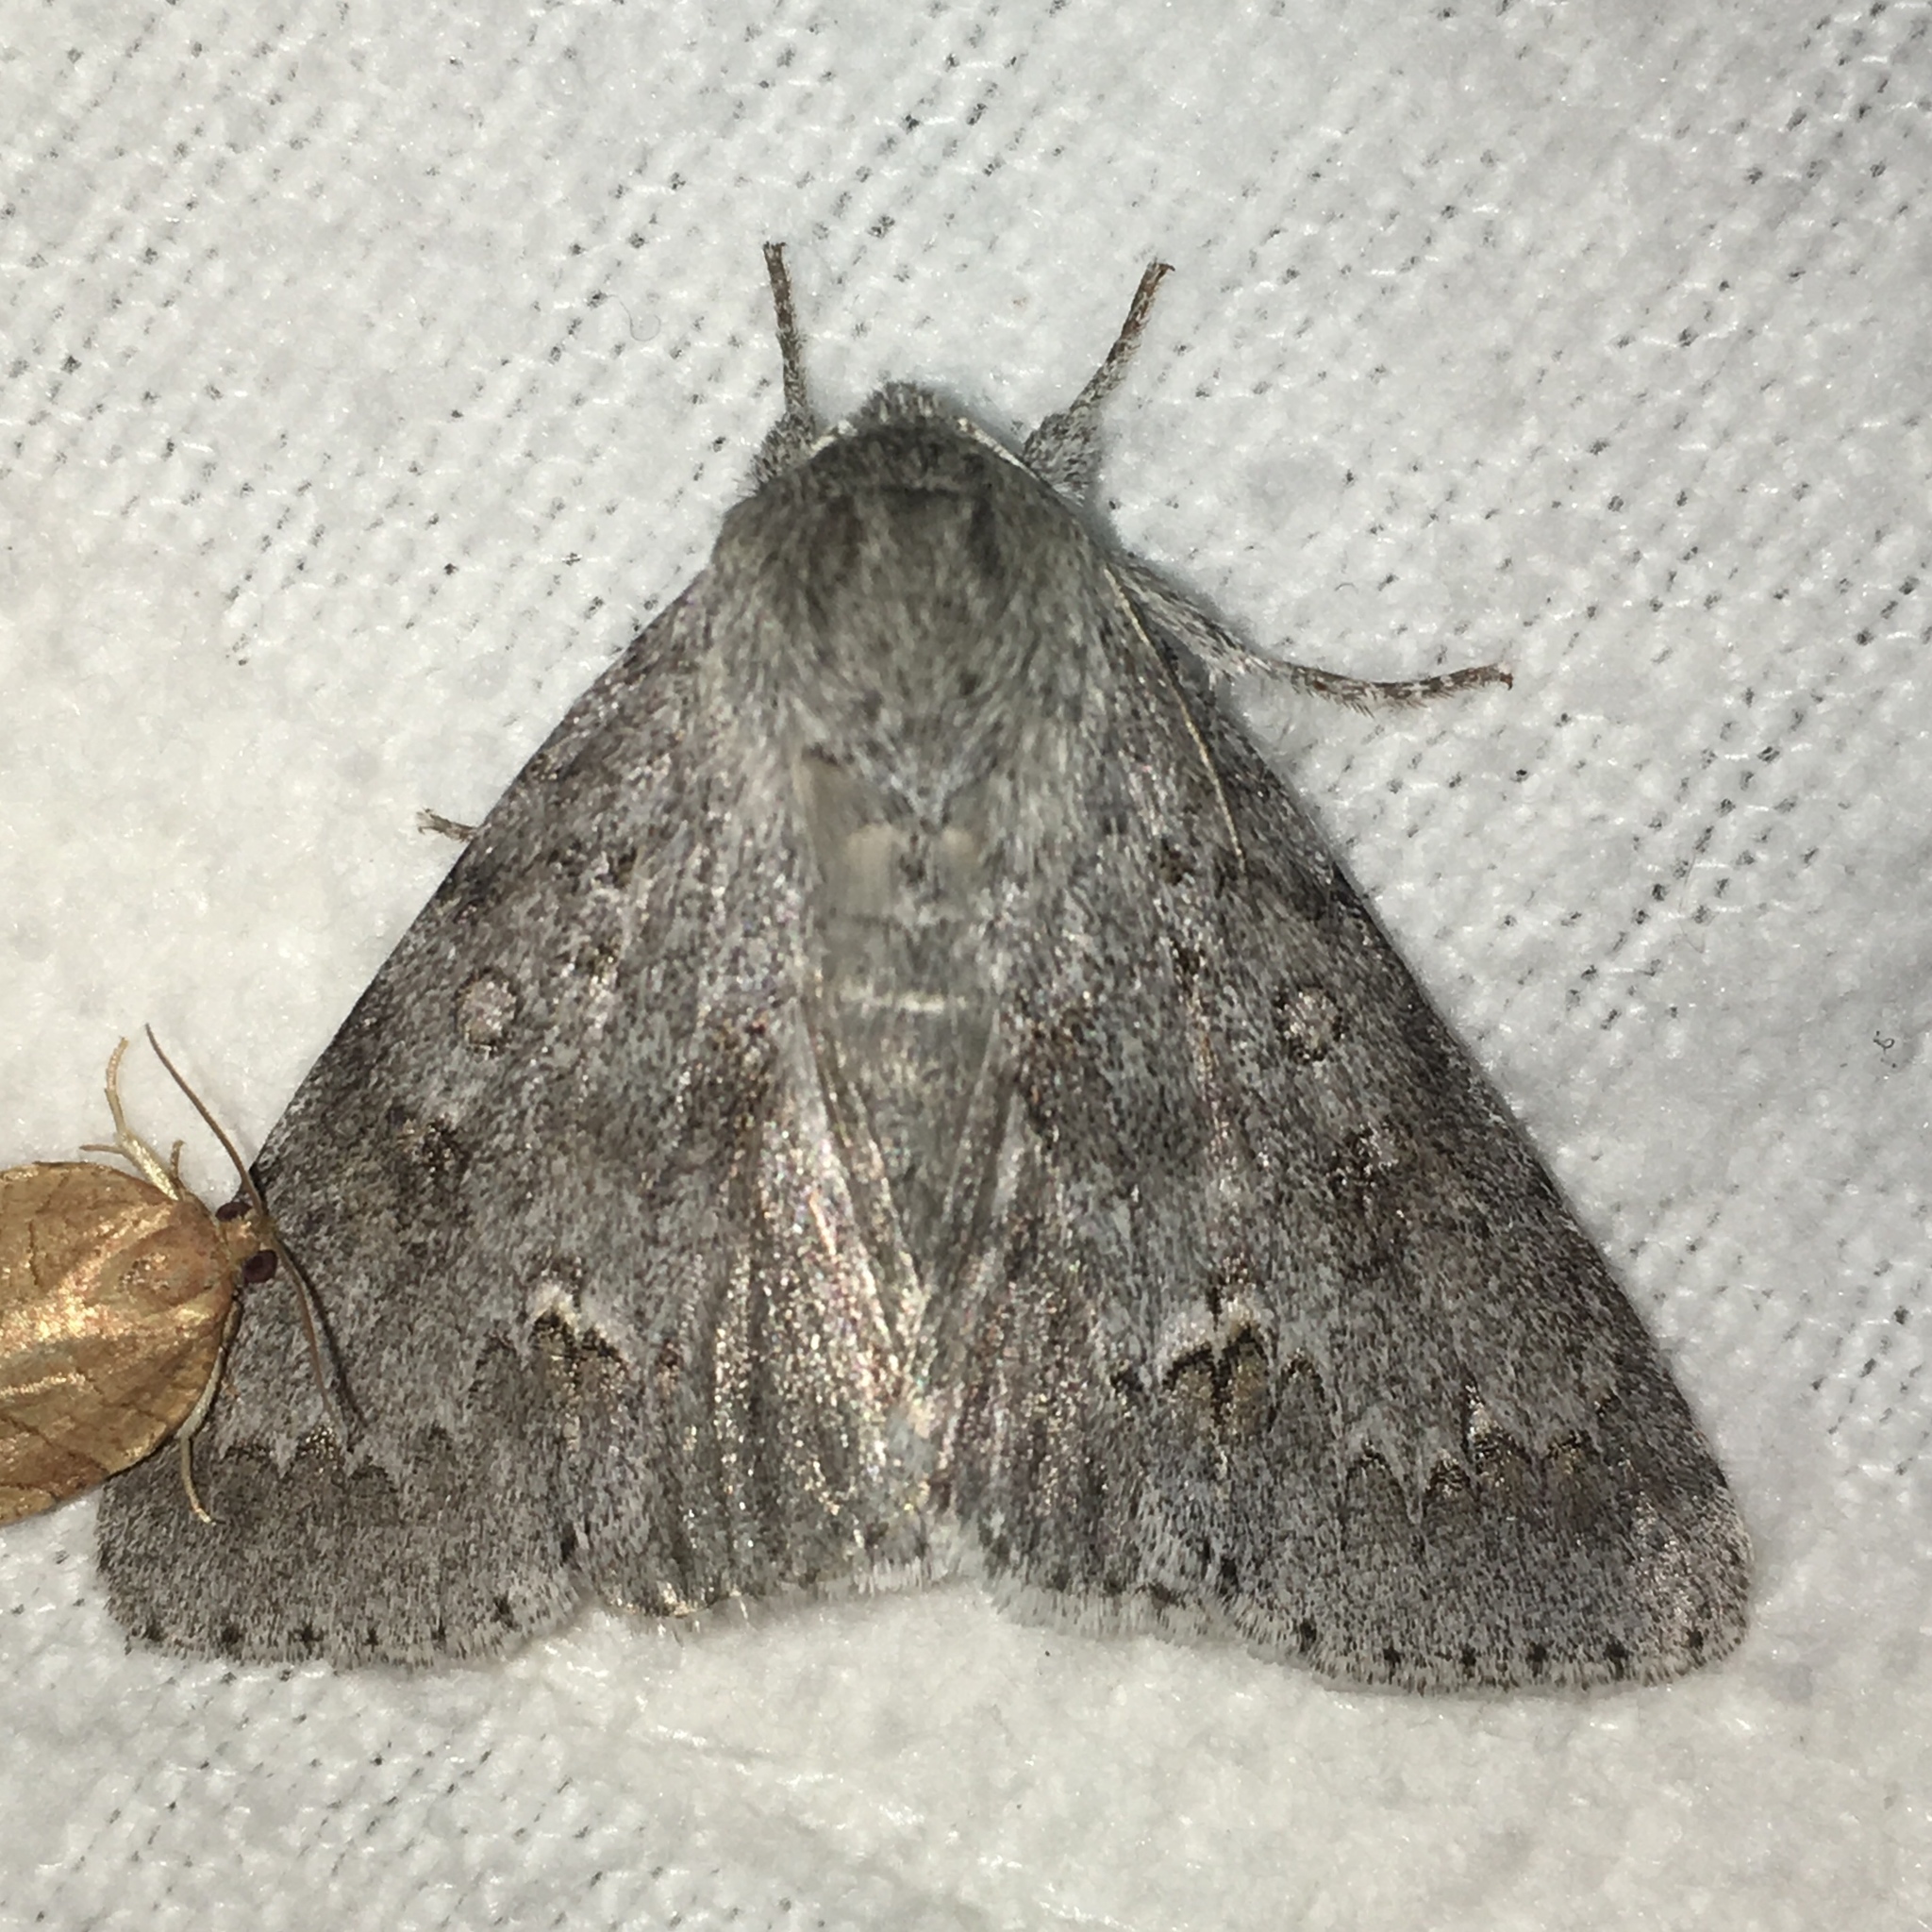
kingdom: Animalia
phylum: Arthropoda
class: Insecta
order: Lepidoptera
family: Noctuidae
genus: Acronicta
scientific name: Acronicta insita
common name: Large gray dagger
